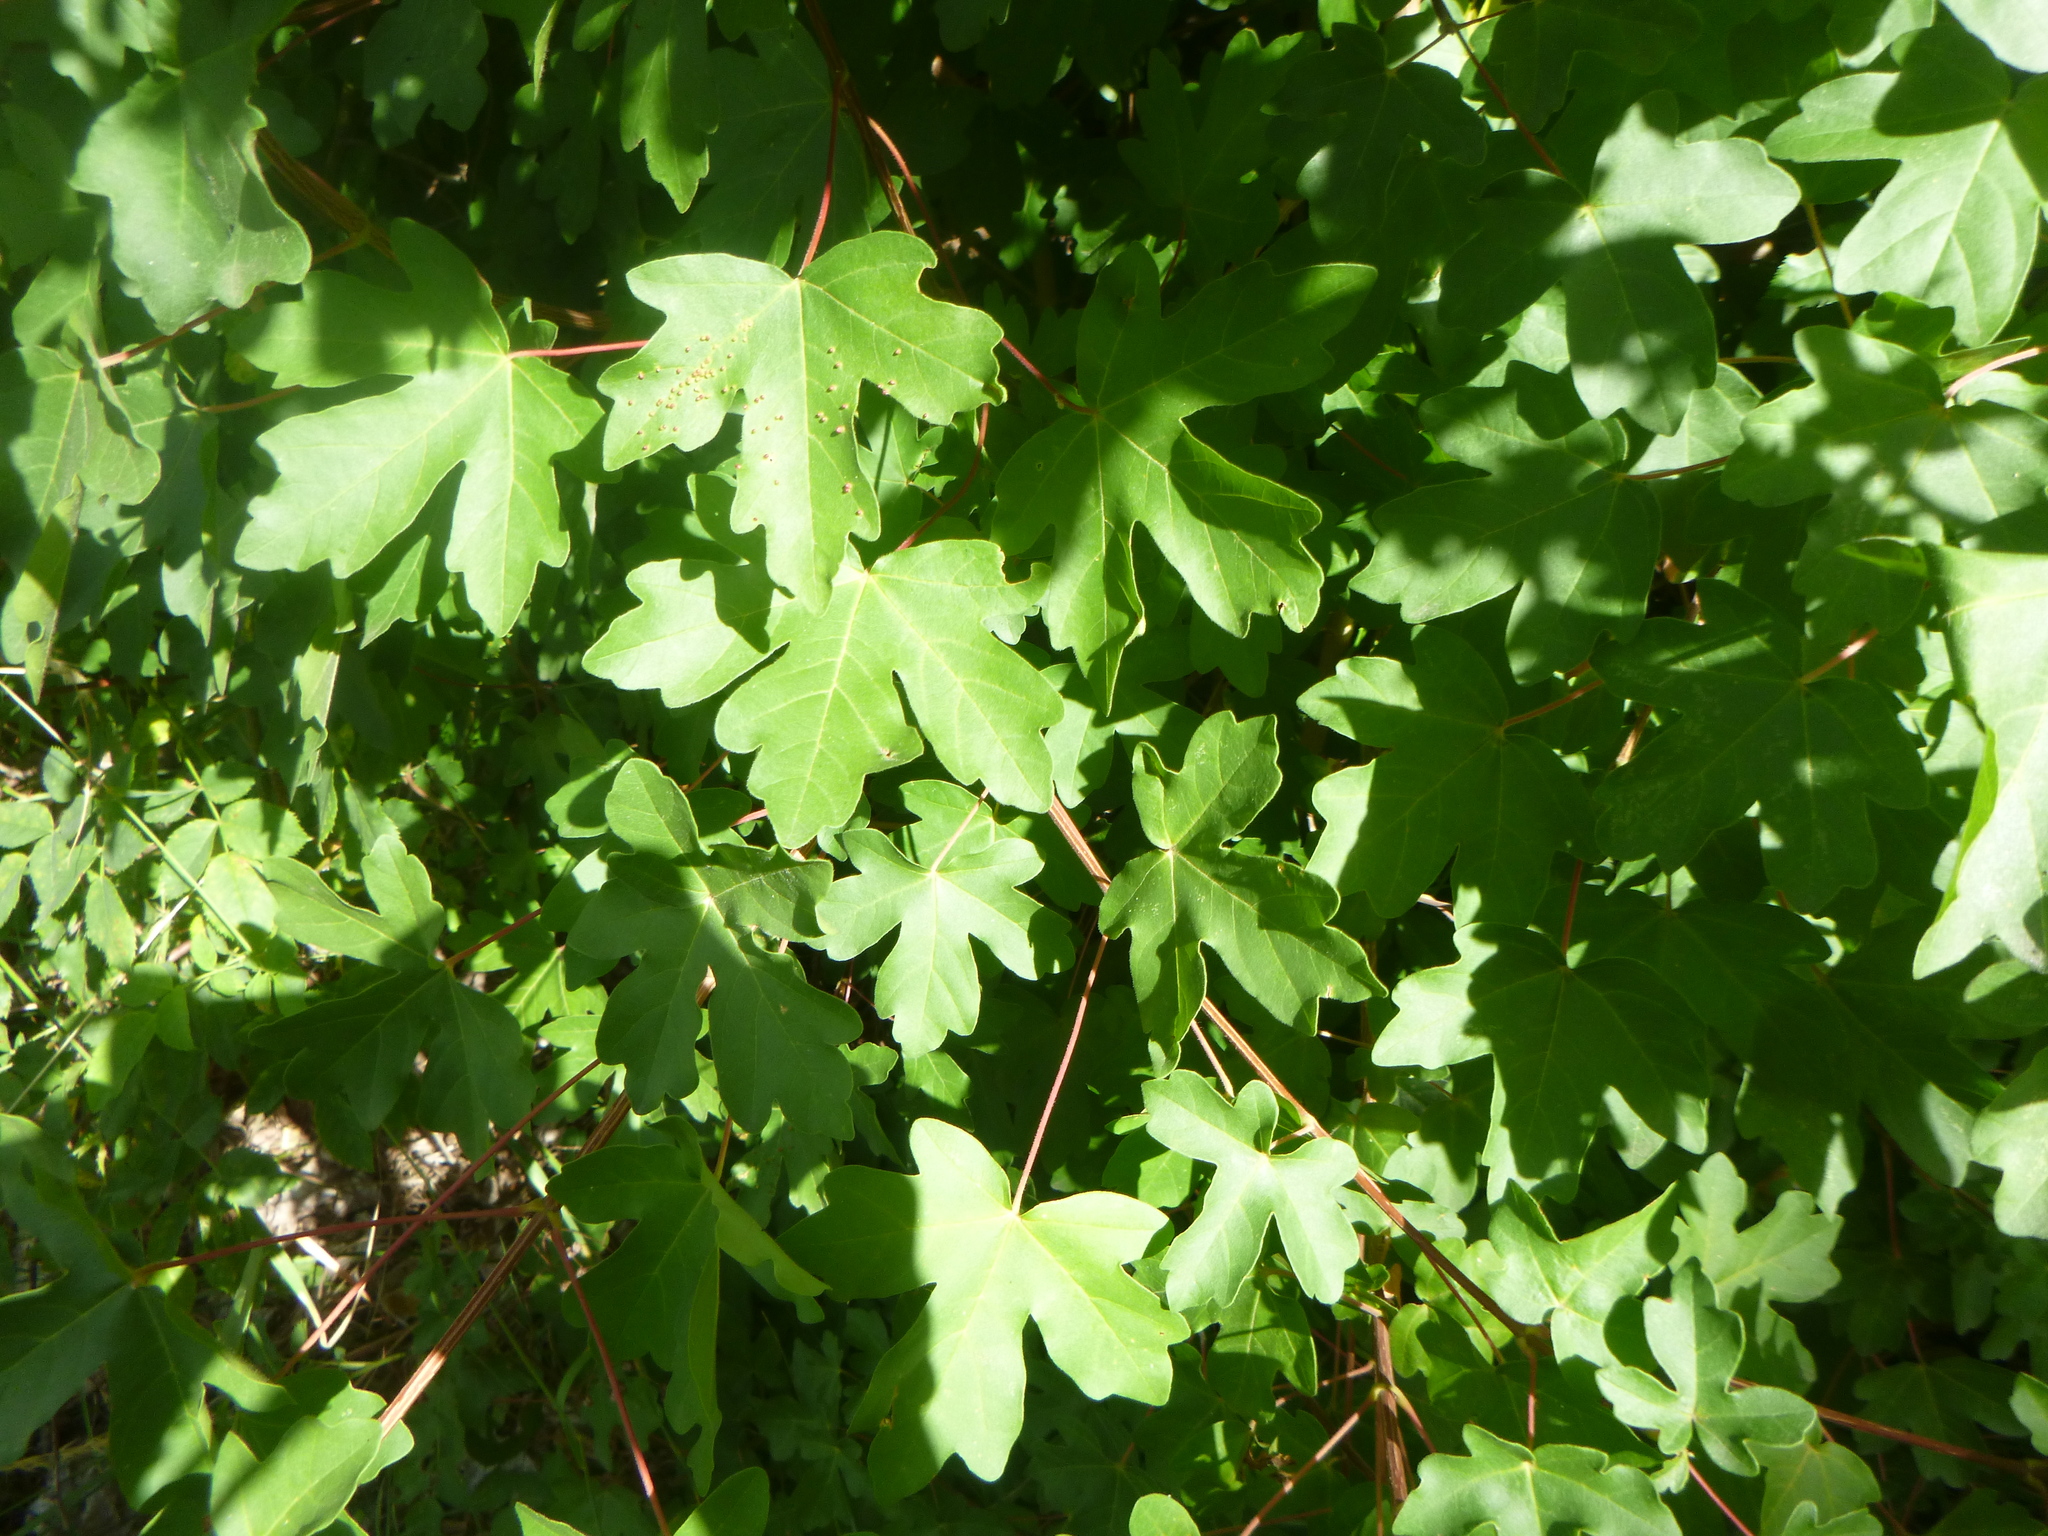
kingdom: Plantae
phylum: Tracheophyta
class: Magnoliopsida
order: Sapindales
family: Sapindaceae
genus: Acer
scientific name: Acer campestre
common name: Field maple
